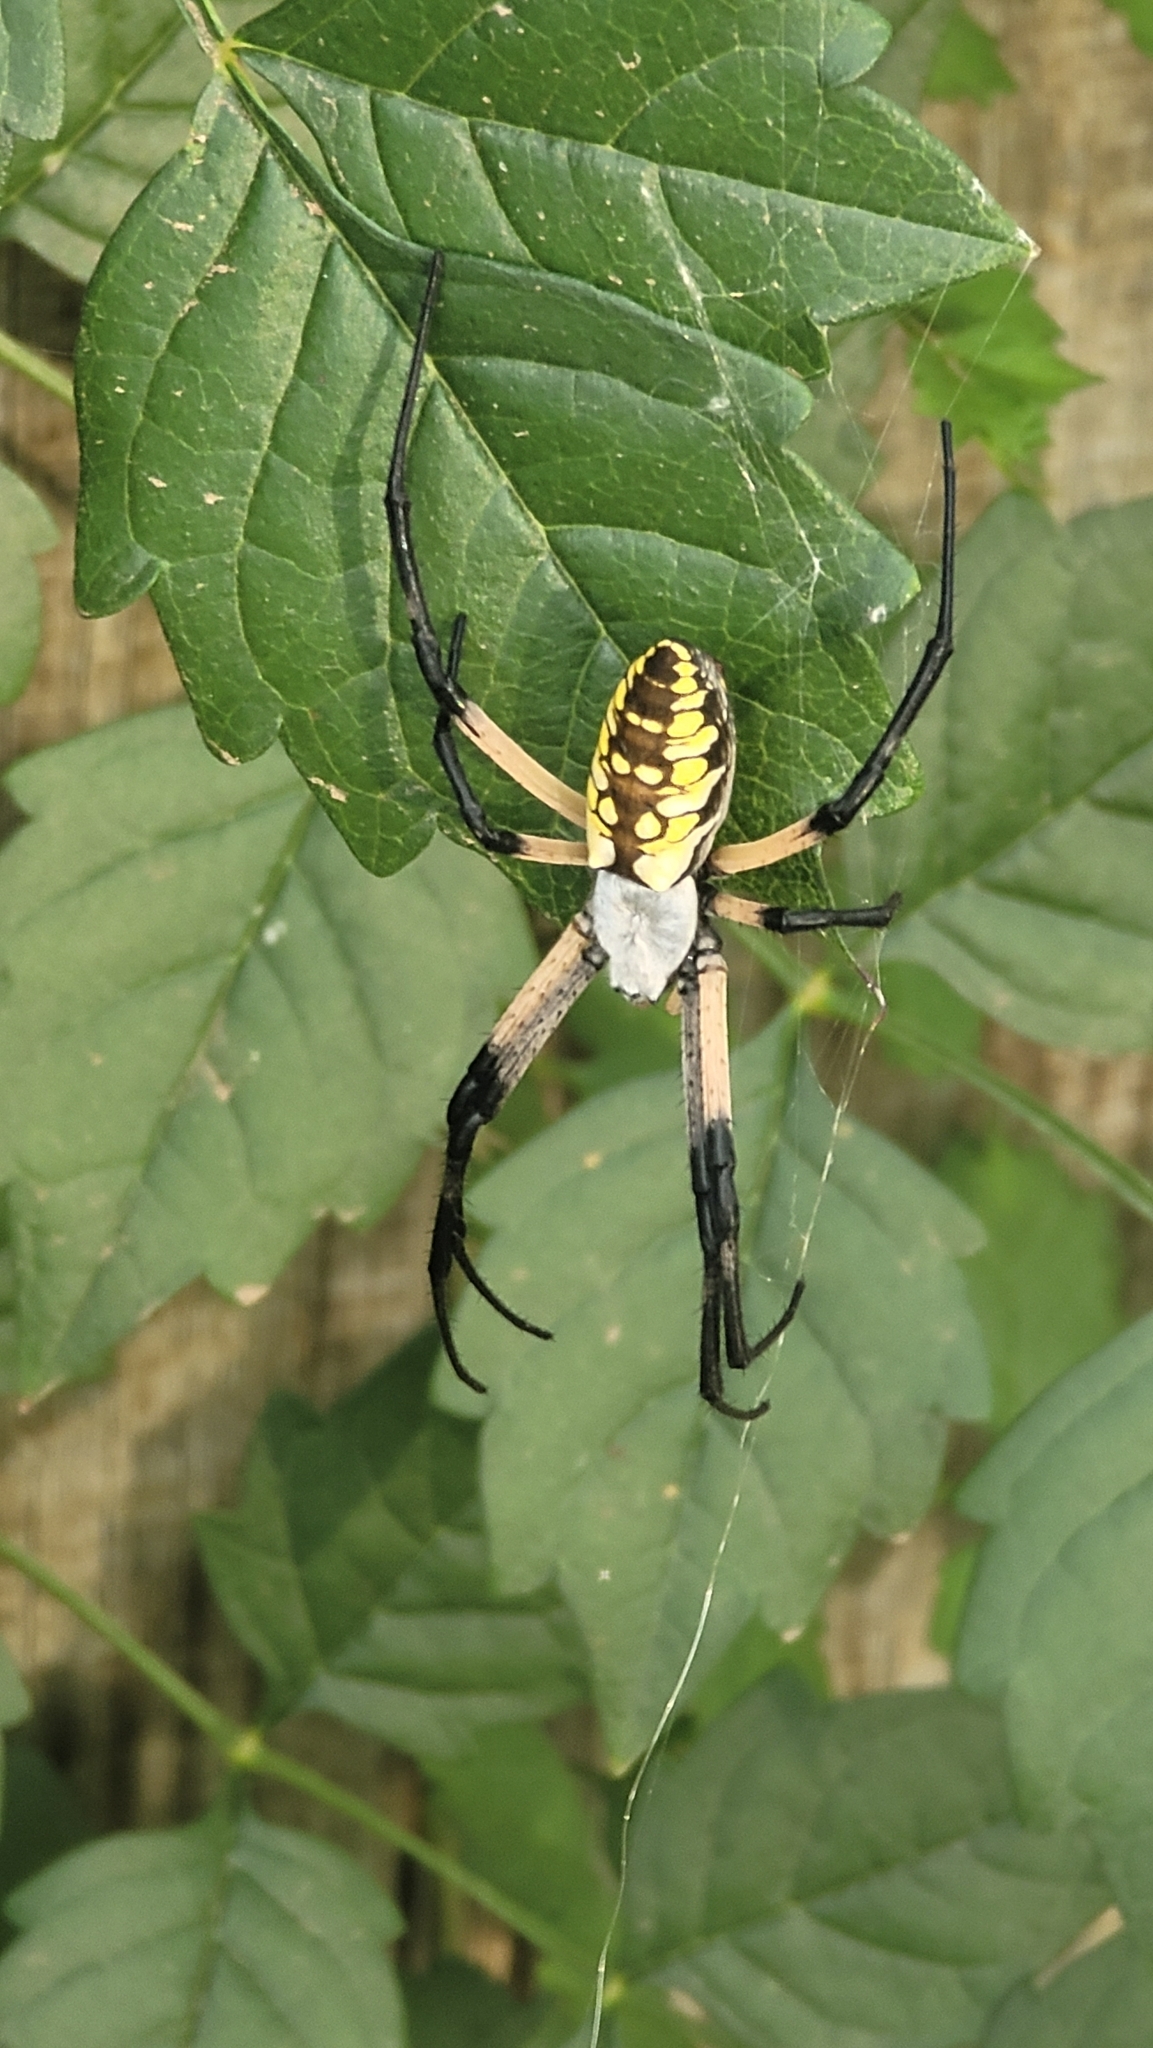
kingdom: Animalia
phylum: Arthropoda
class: Arachnida
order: Araneae
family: Araneidae
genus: Argiope
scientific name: Argiope aurantia
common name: Orb weavers
